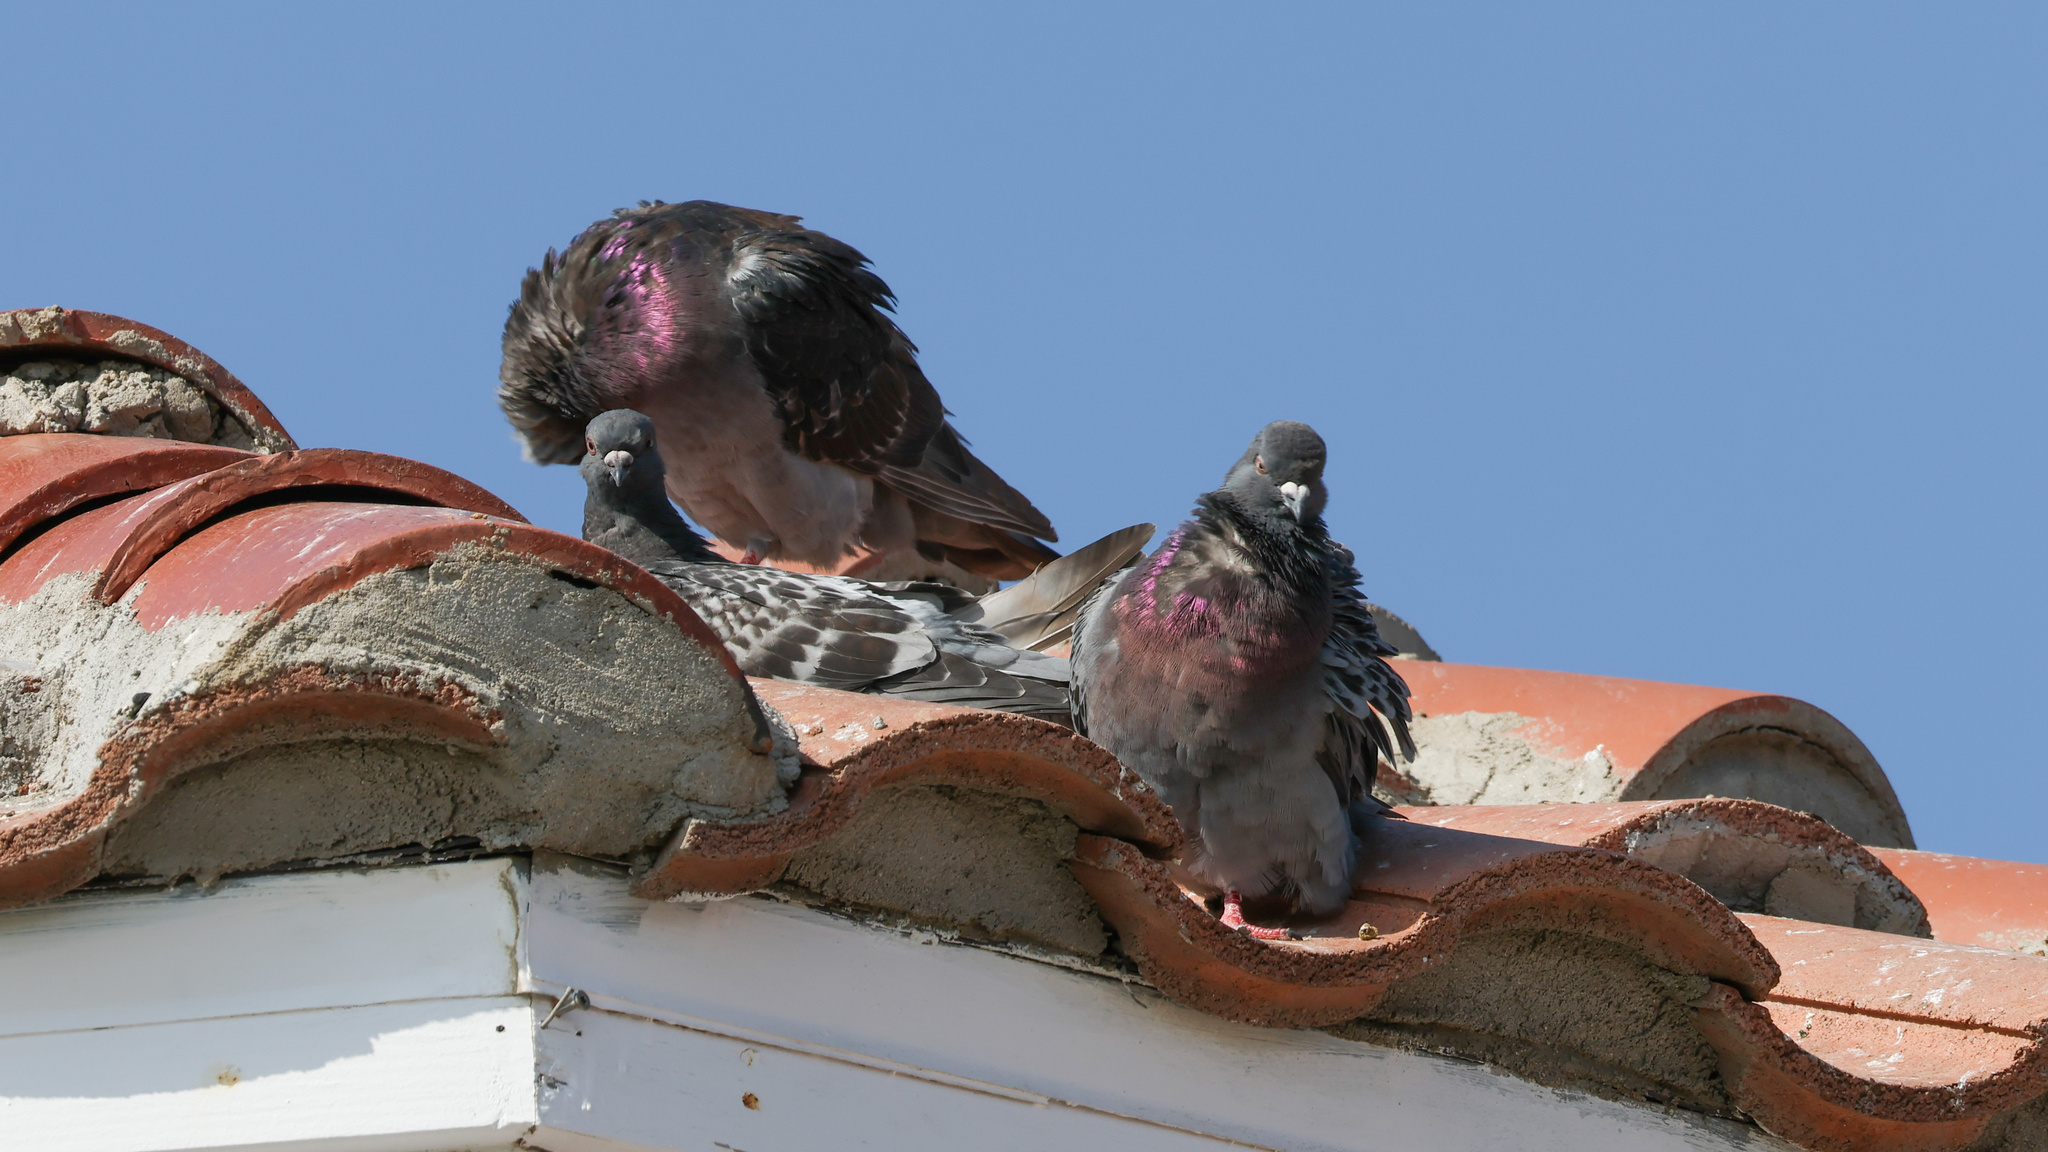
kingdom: Animalia
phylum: Chordata
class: Aves
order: Columbiformes
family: Columbidae
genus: Columba
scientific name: Columba livia
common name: Rock pigeon
